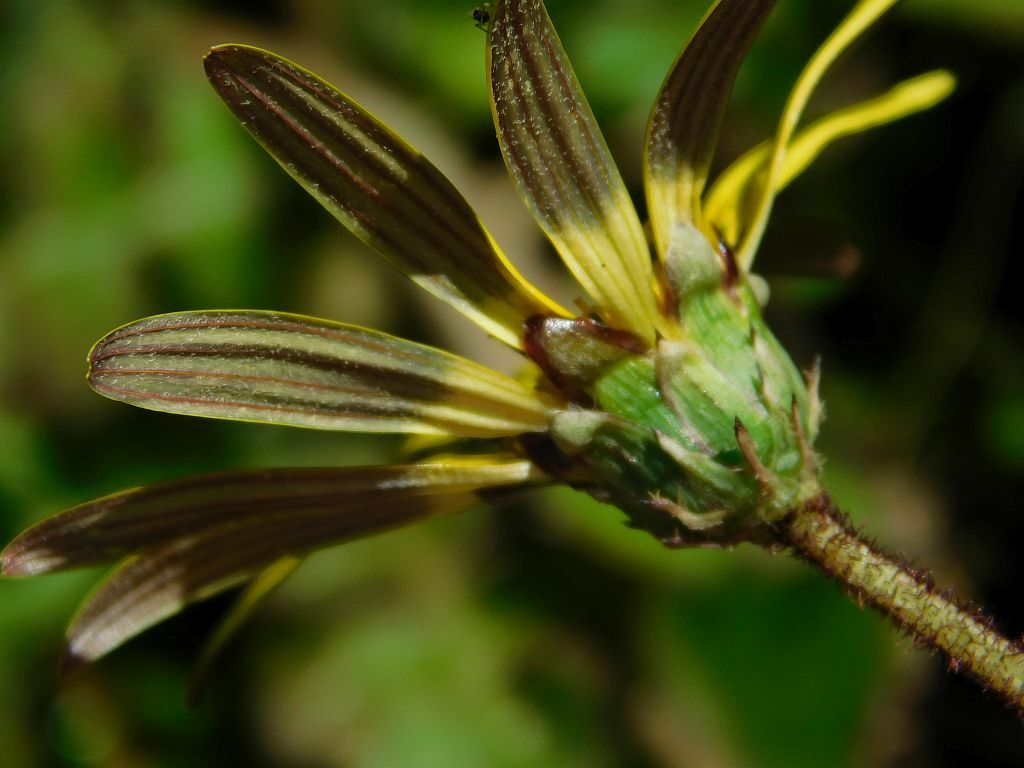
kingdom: Plantae
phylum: Tracheophyta
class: Magnoliopsida
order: Asterales
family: Asteraceae
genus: Arctotheca
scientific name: Arctotheca prostrata
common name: Capeweed
